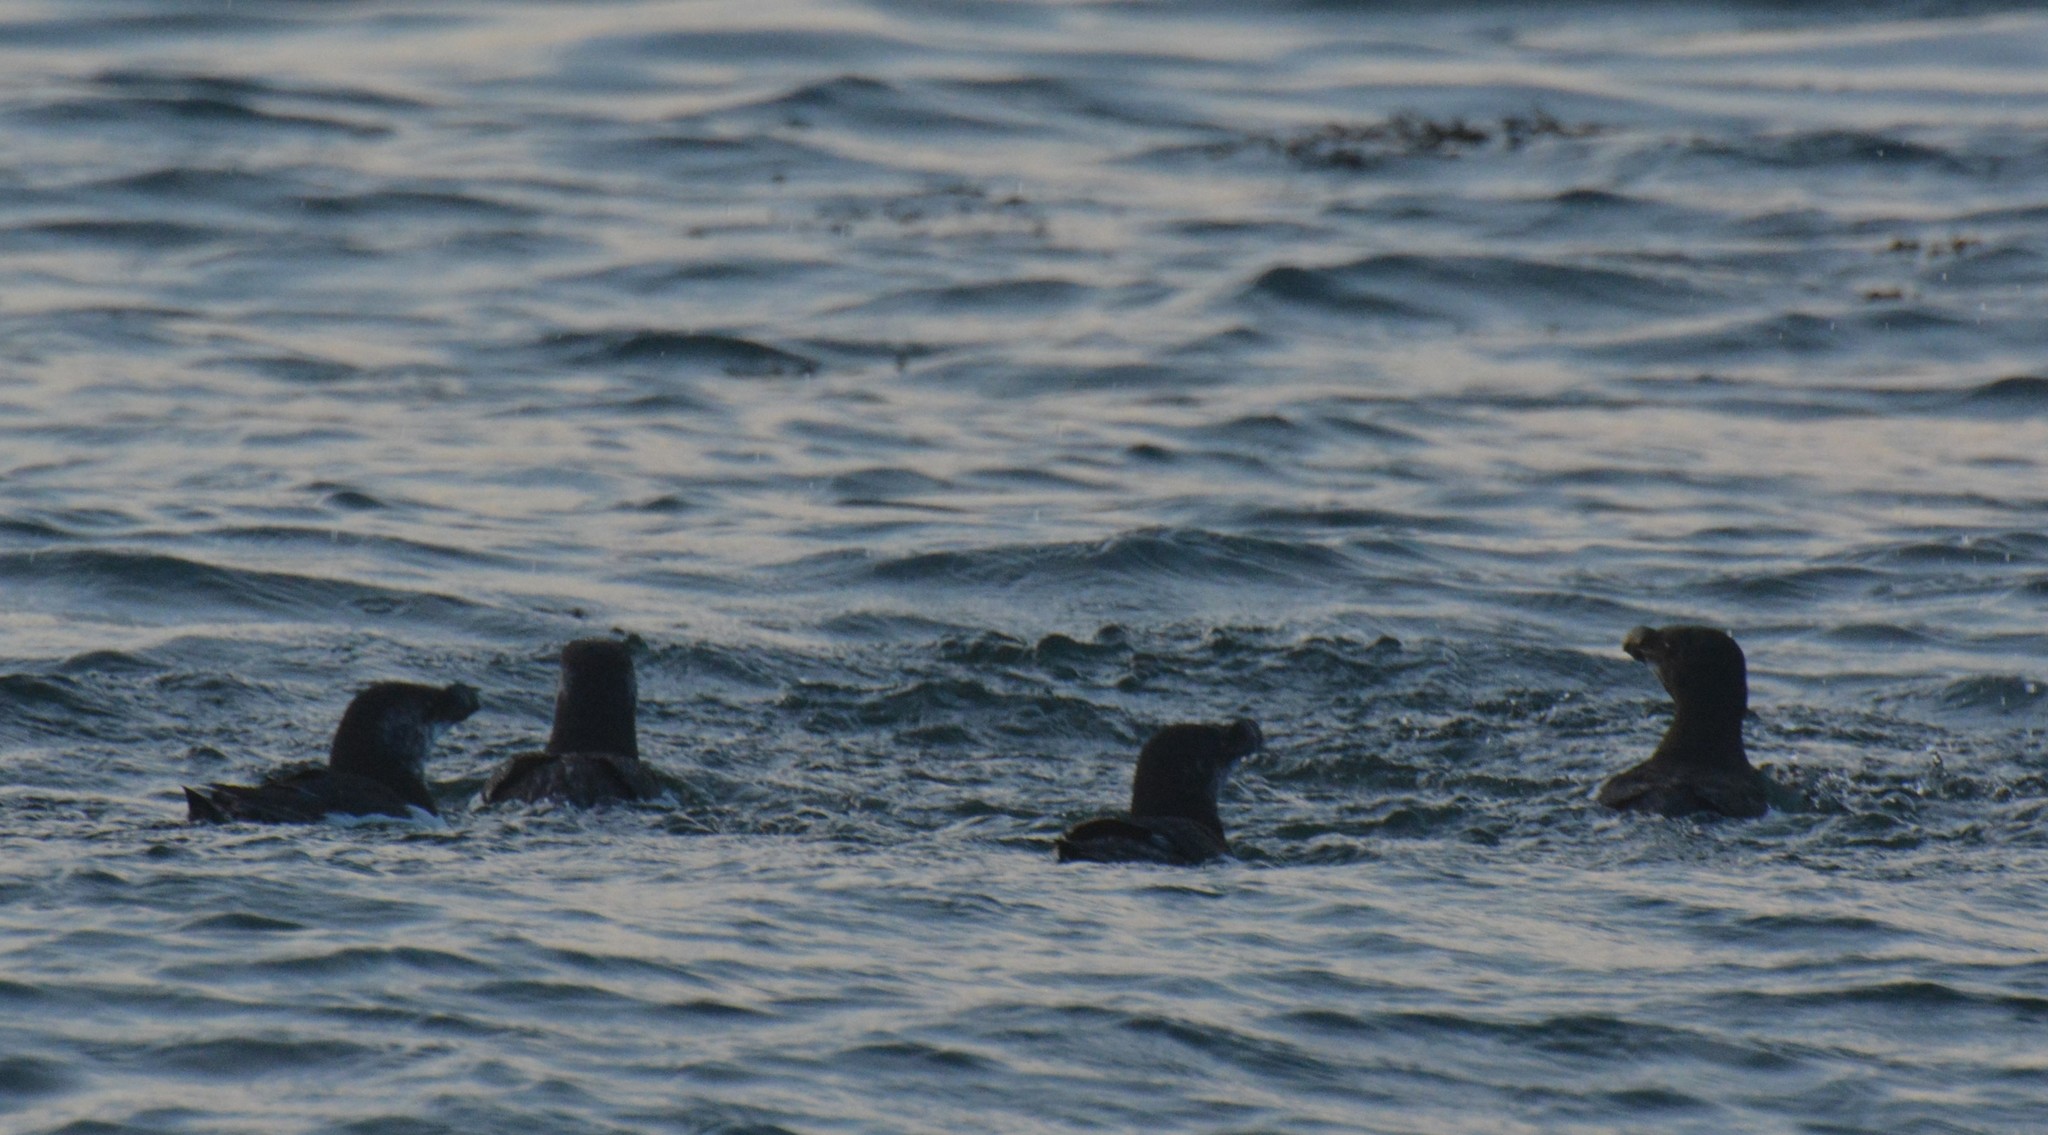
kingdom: Animalia
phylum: Chordata
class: Aves
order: Charadriiformes
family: Alcidae
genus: Alca
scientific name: Alca torda
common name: Razorbill
